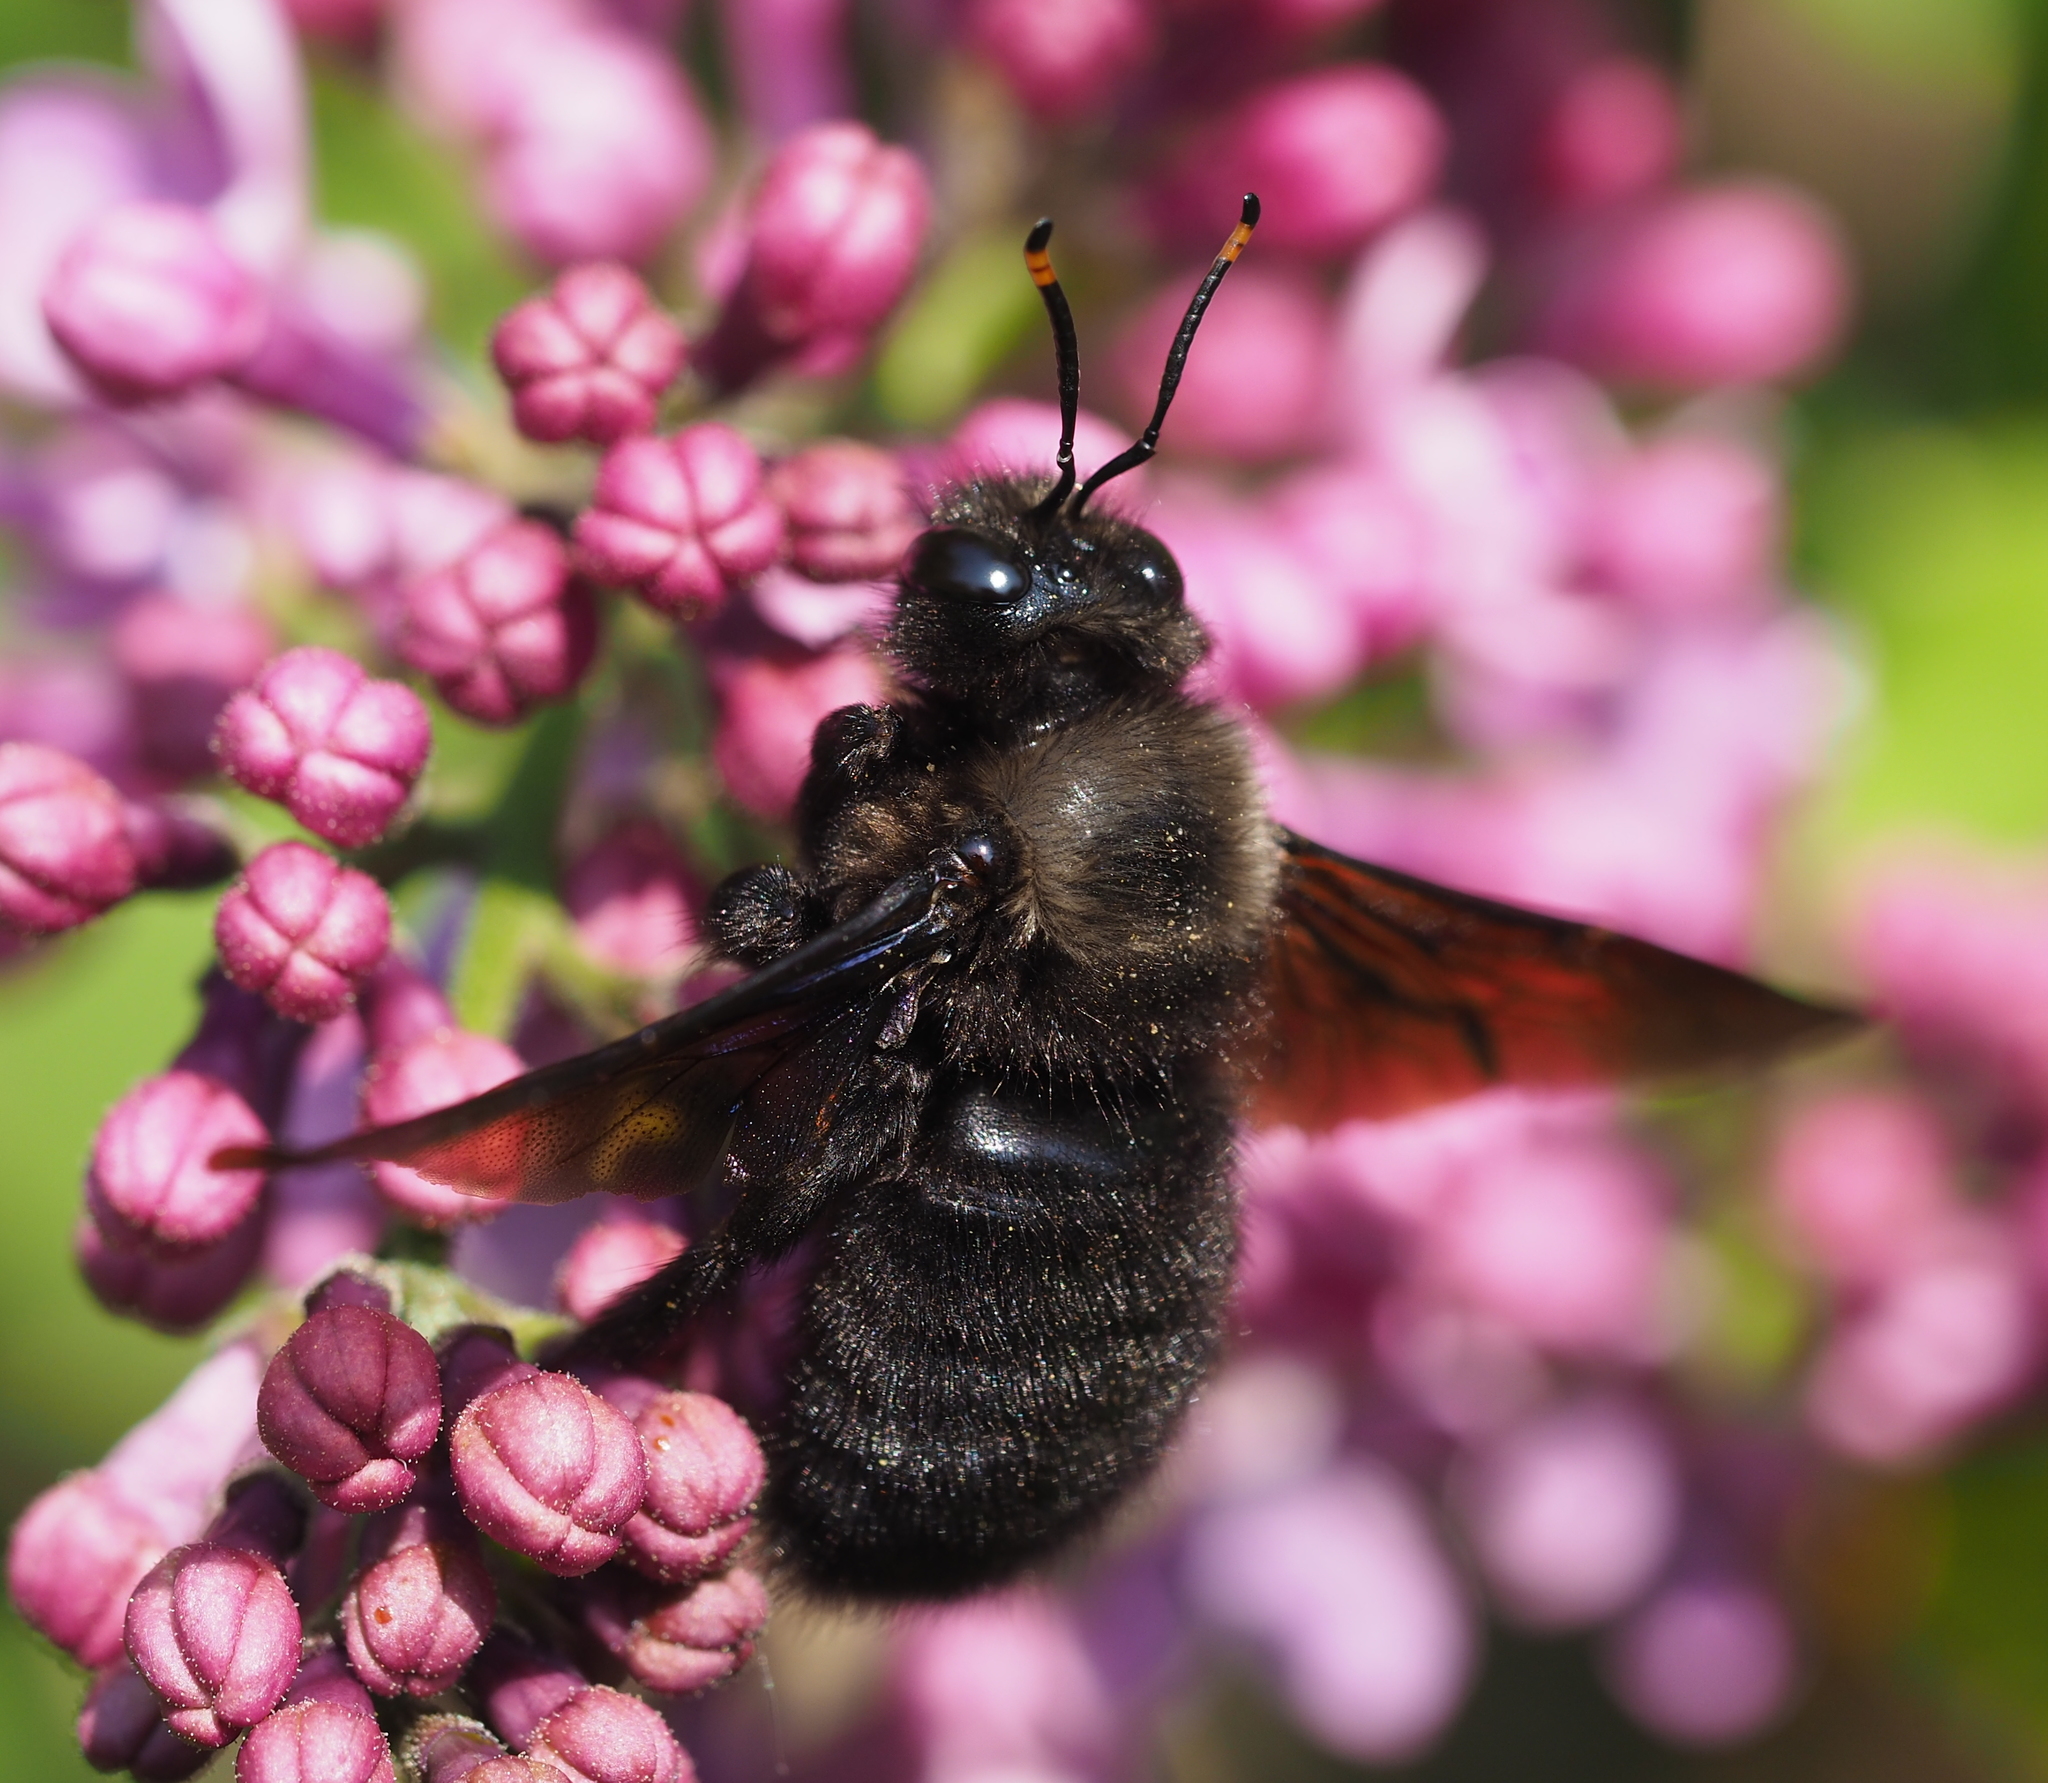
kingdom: Animalia
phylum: Arthropoda
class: Insecta
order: Hymenoptera
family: Apidae
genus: Xylocopa
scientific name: Xylocopa violacea
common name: Violet carpenter bee
